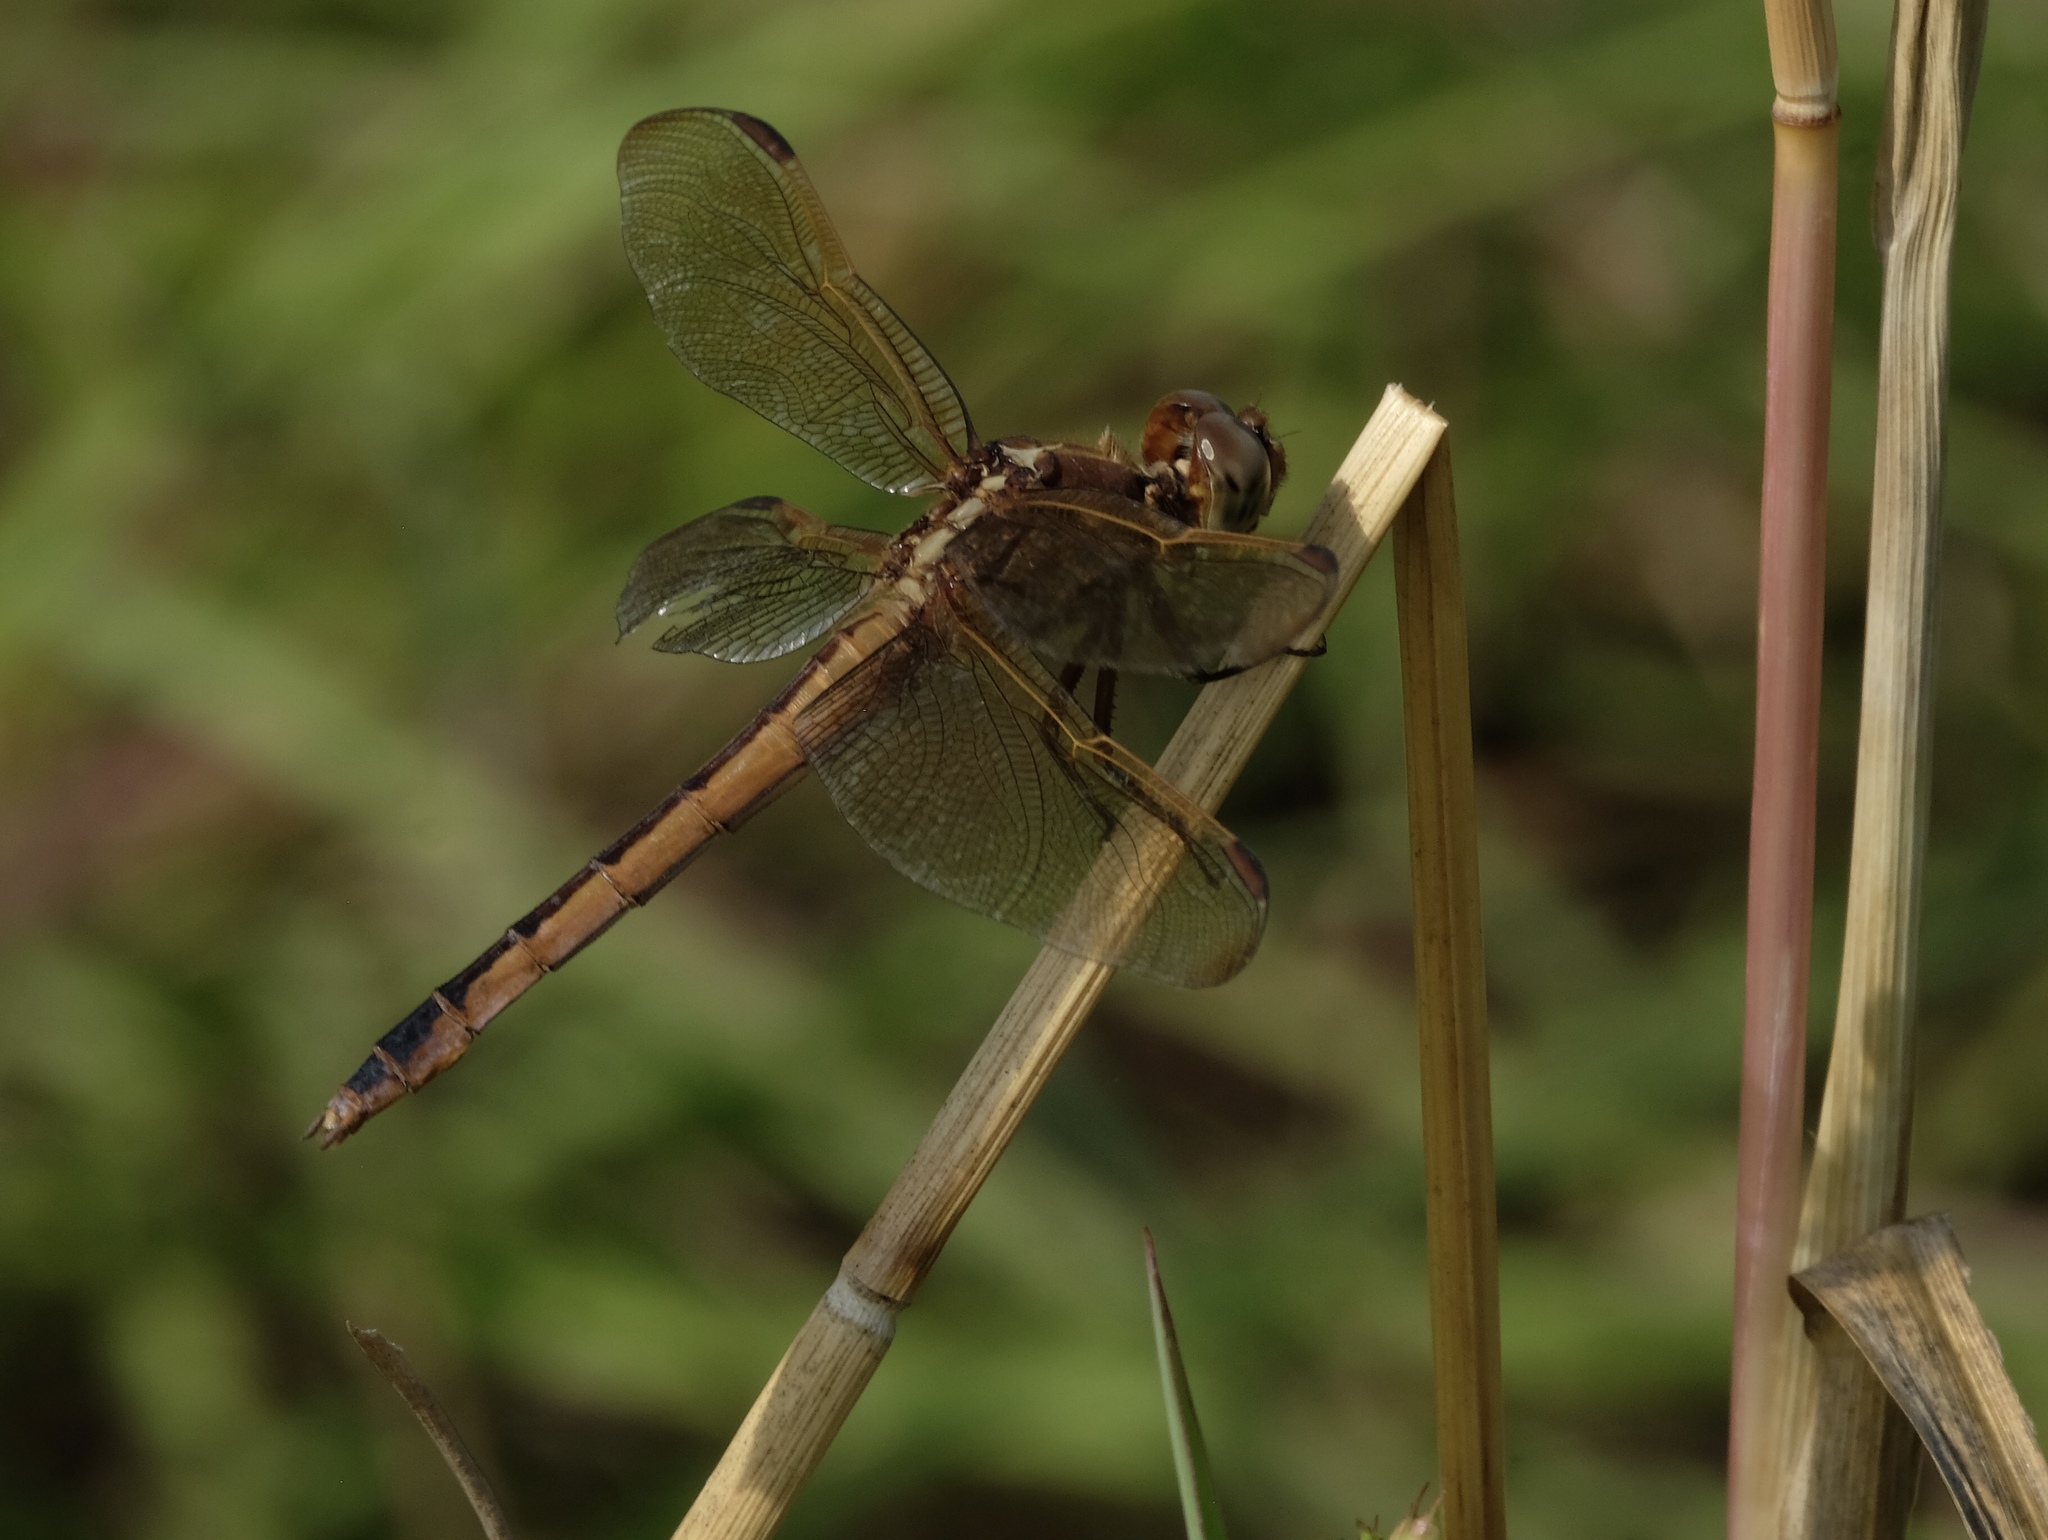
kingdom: Animalia
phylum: Arthropoda
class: Insecta
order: Odonata
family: Libellulidae
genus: Libellula
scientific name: Libellula needhami
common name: Needham's skimmer
